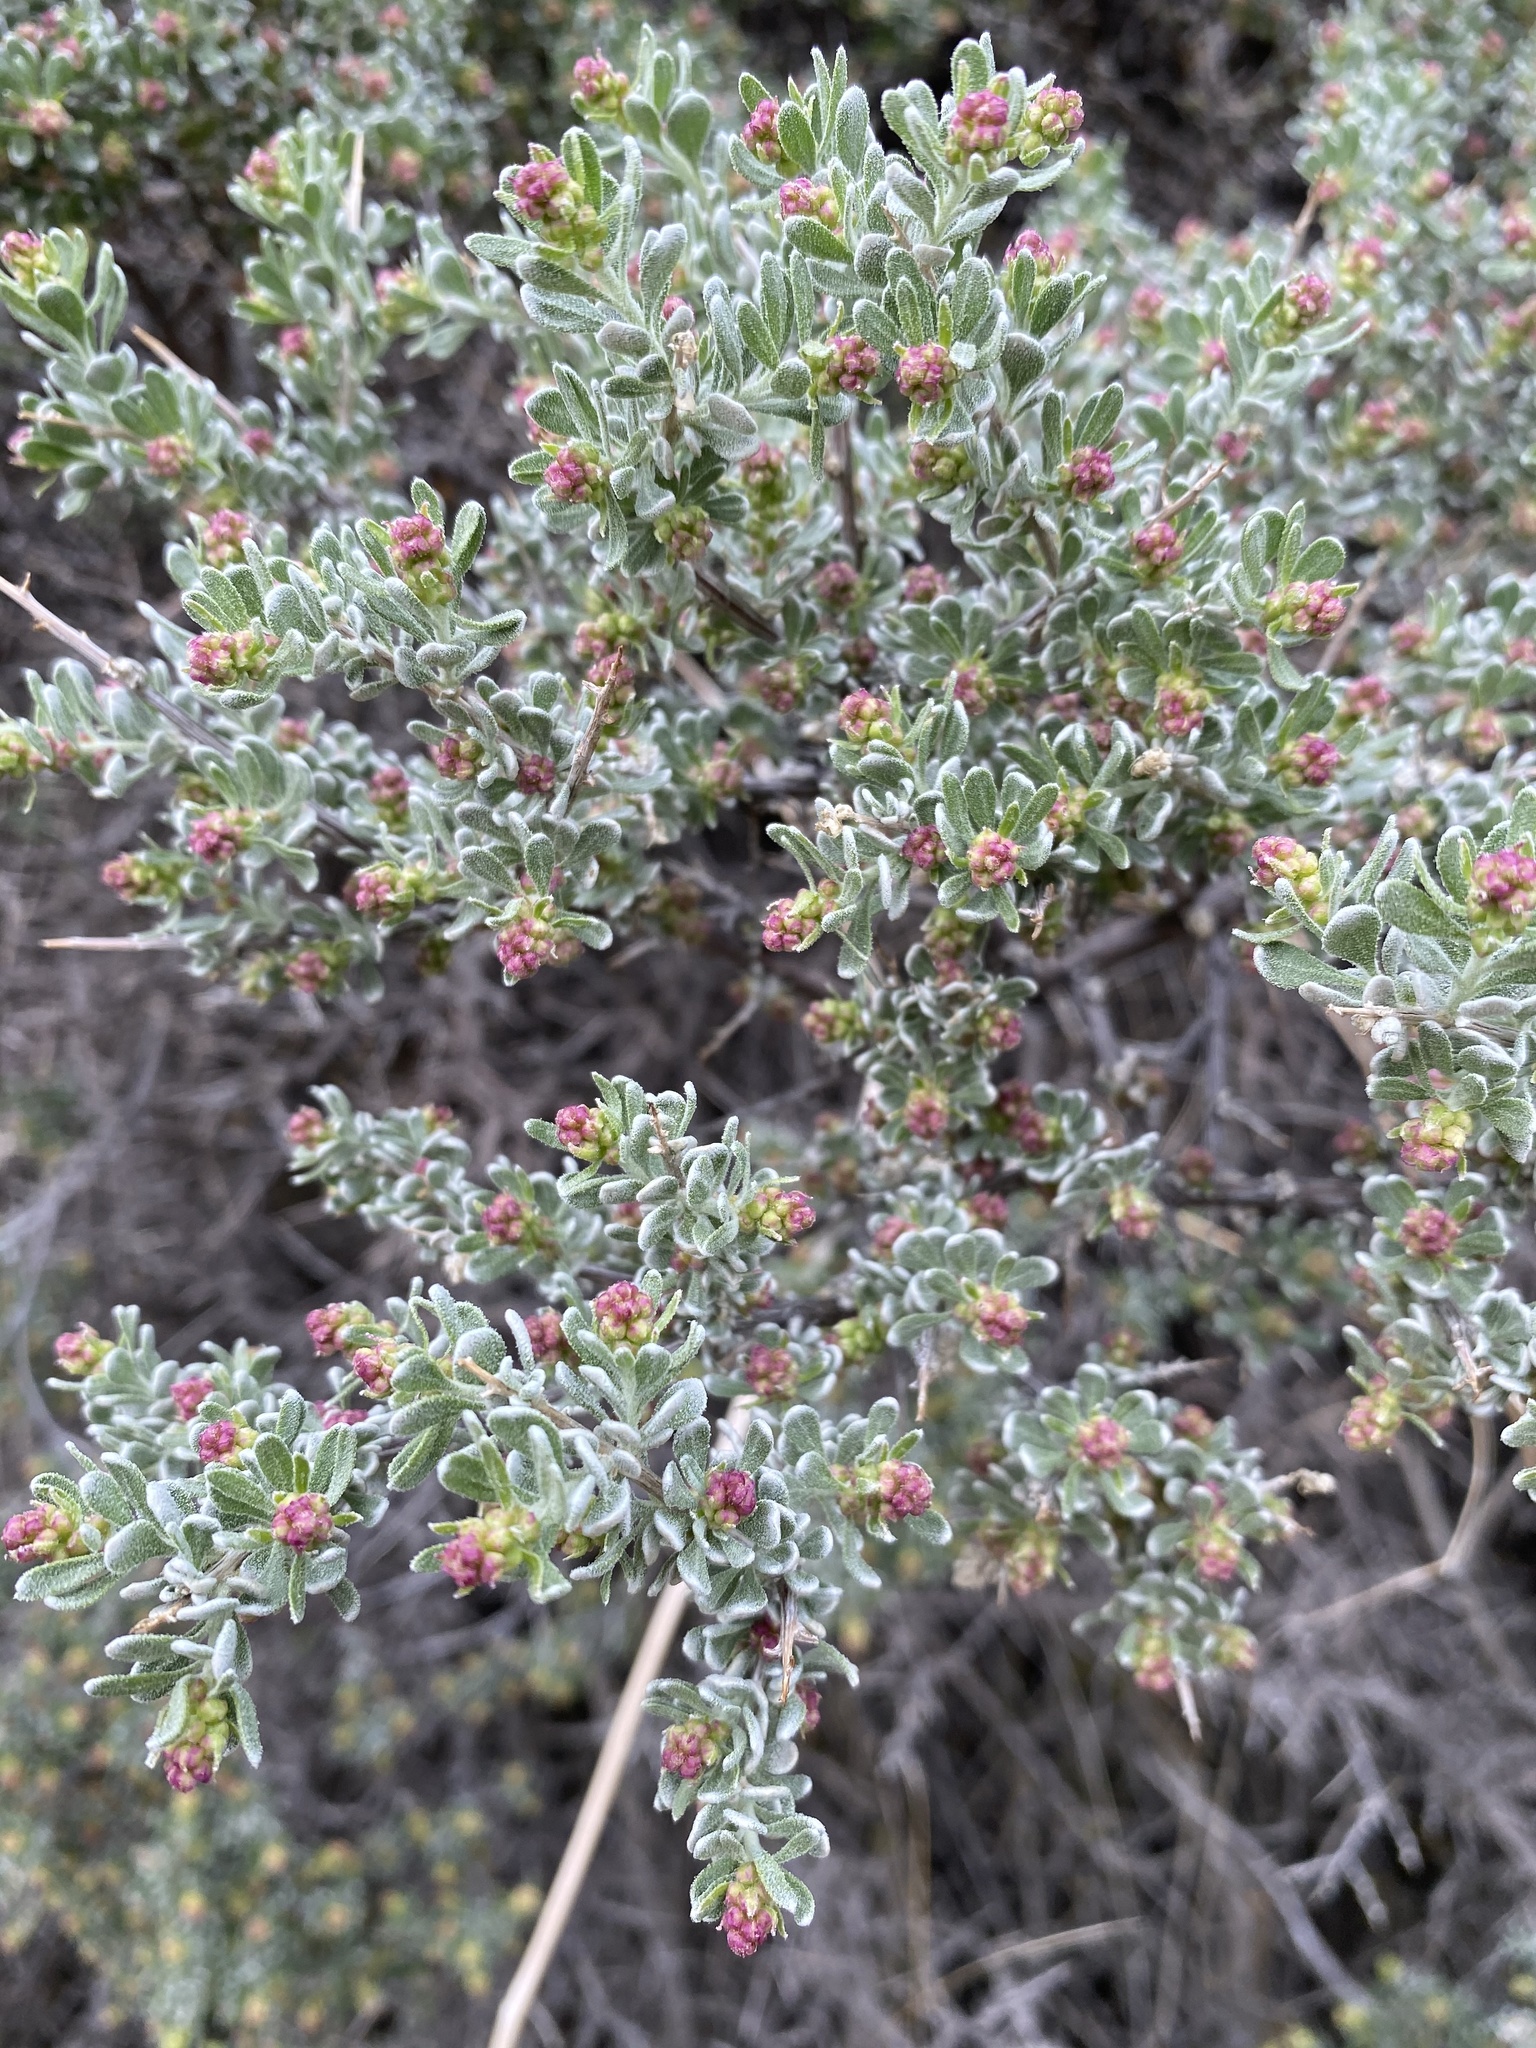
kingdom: Plantae
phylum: Tracheophyta
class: Magnoliopsida
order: Caryophyllales
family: Amaranthaceae
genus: Grayia
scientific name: Grayia spinosa
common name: Spiny hopsage
